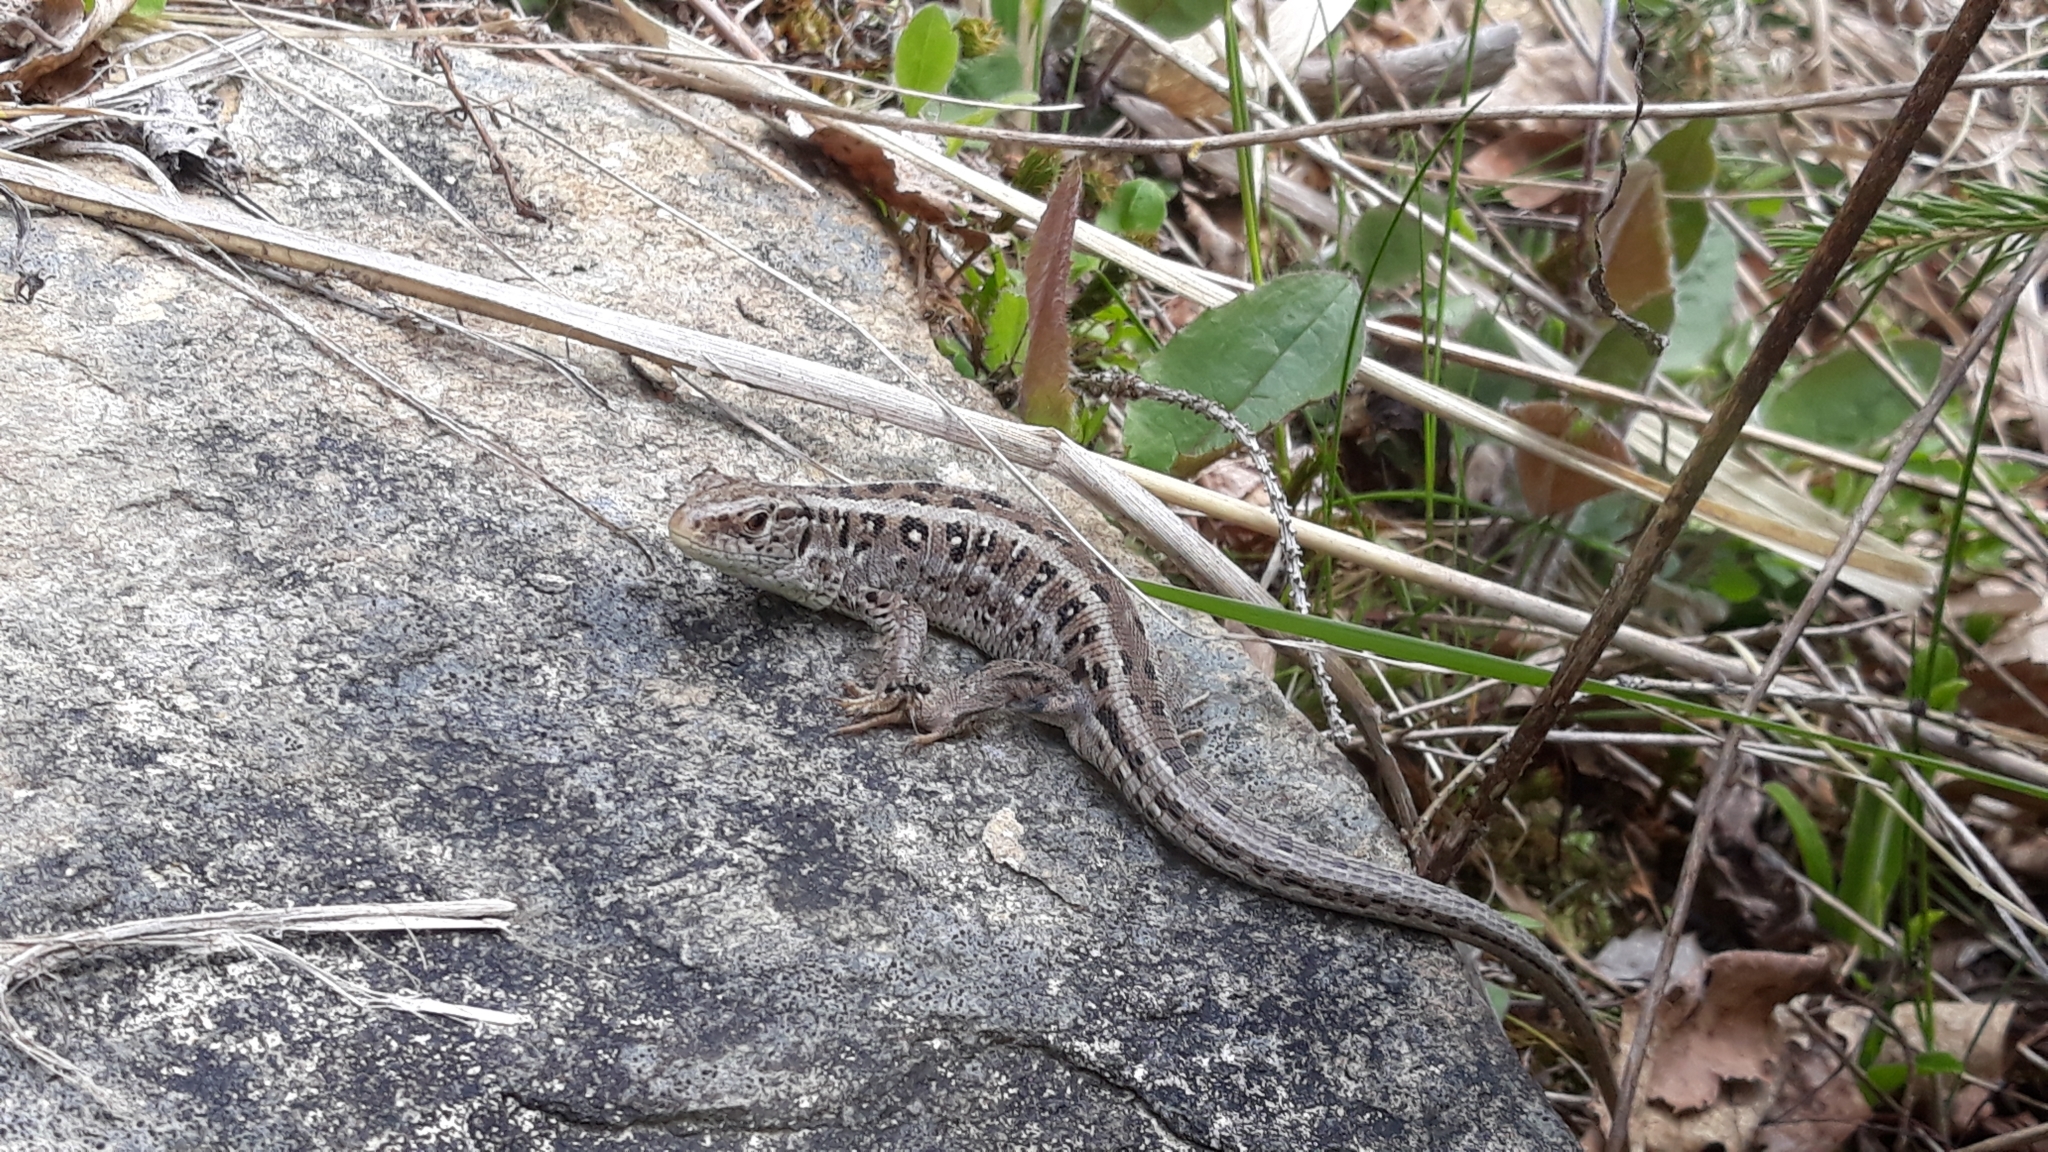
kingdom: Animalia
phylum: Chordata
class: Squamata
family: Lacertidae
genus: Lacerta
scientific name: Lacerta agilis
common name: Sand lizard
